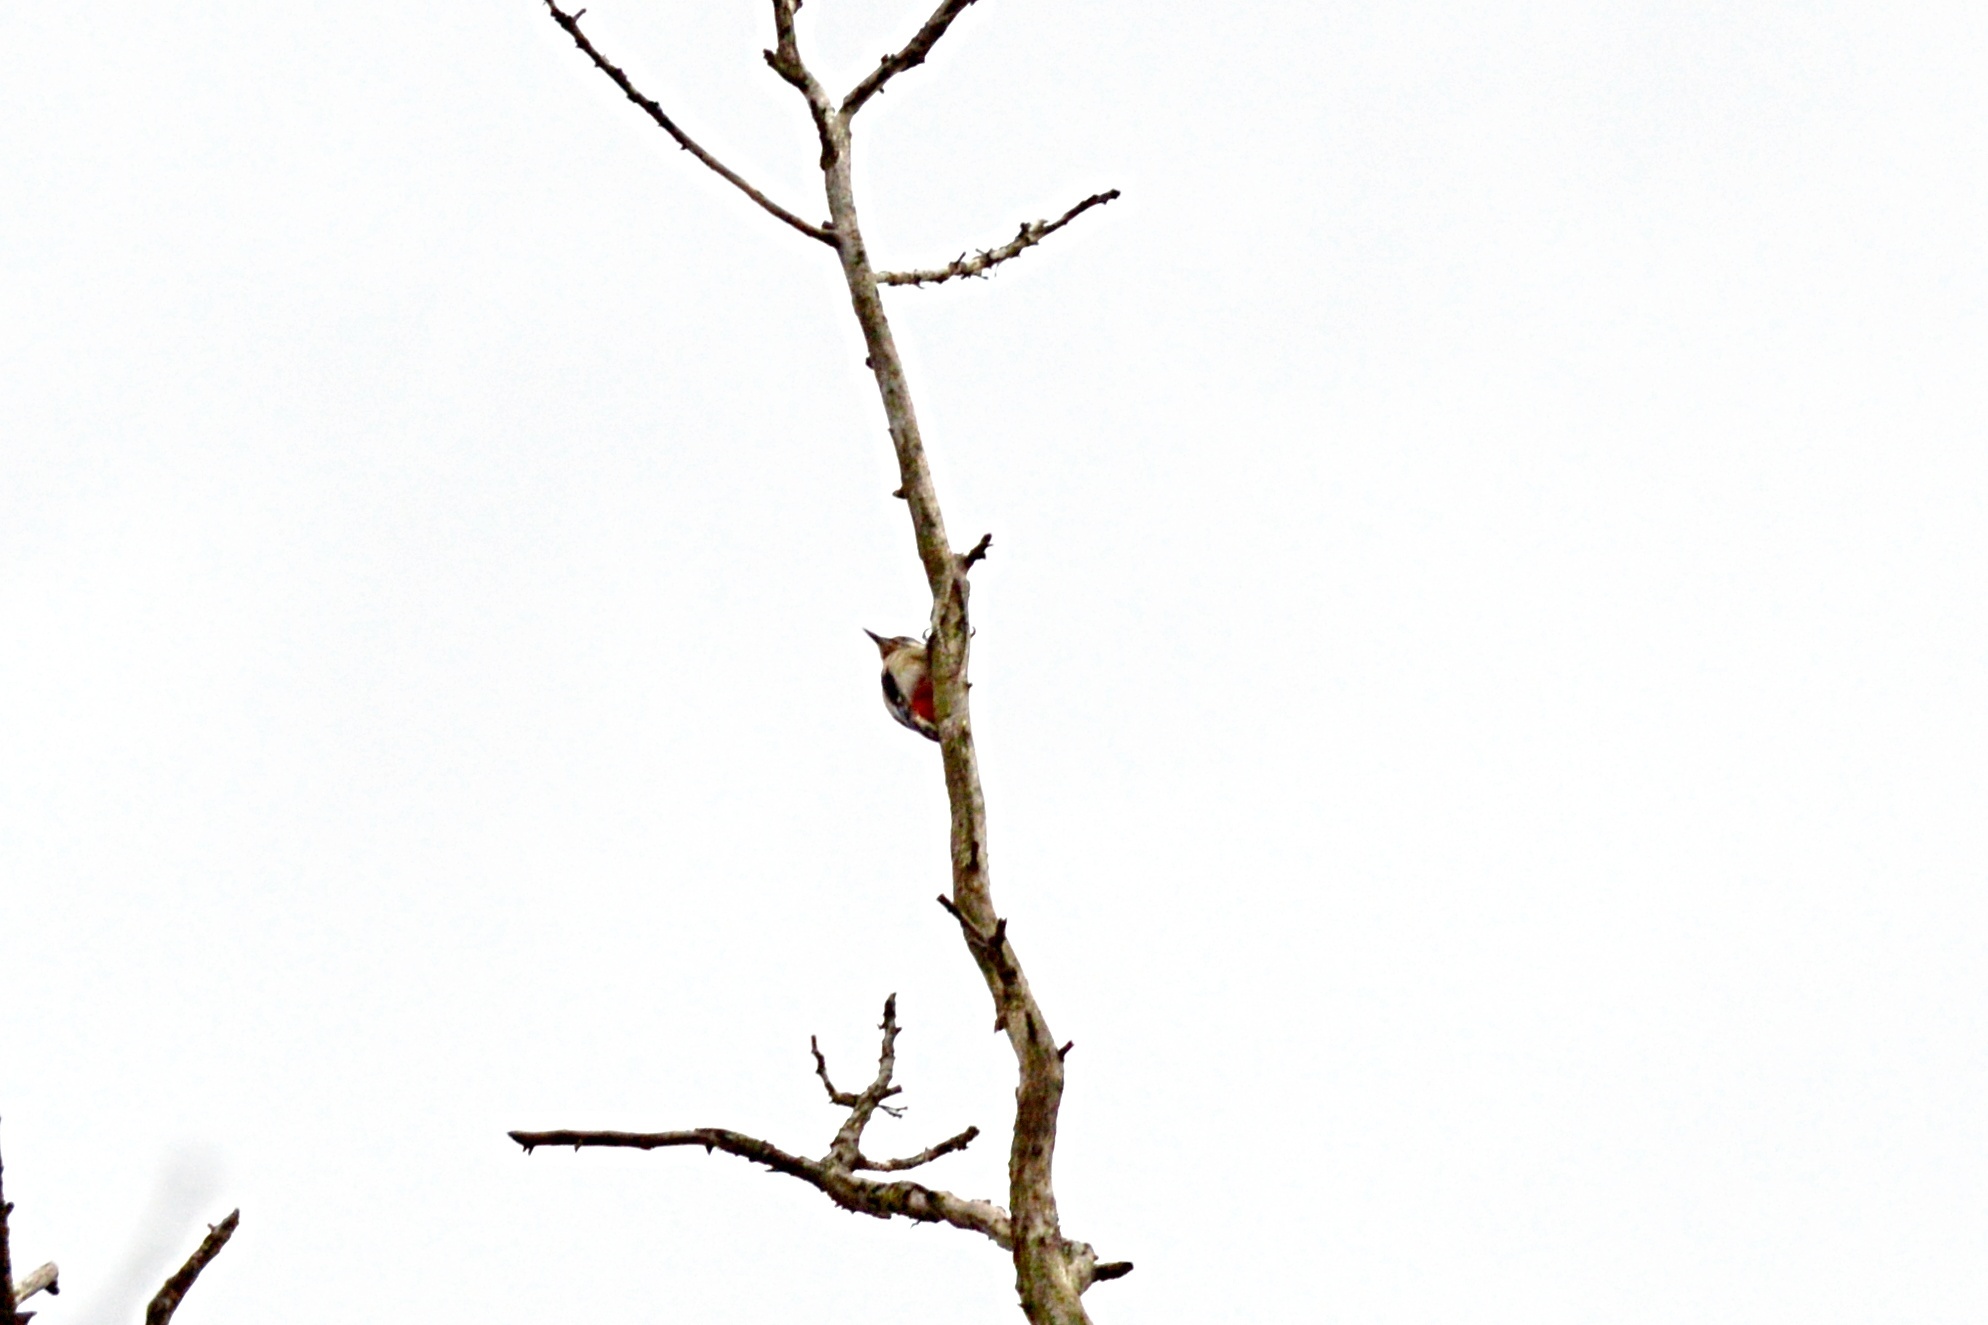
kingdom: Animalia
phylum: Chordata
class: Aves
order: Piciformes
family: Picidae
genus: Dendrocopos
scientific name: Dendrocopos major
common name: Great spotted woodpecker
